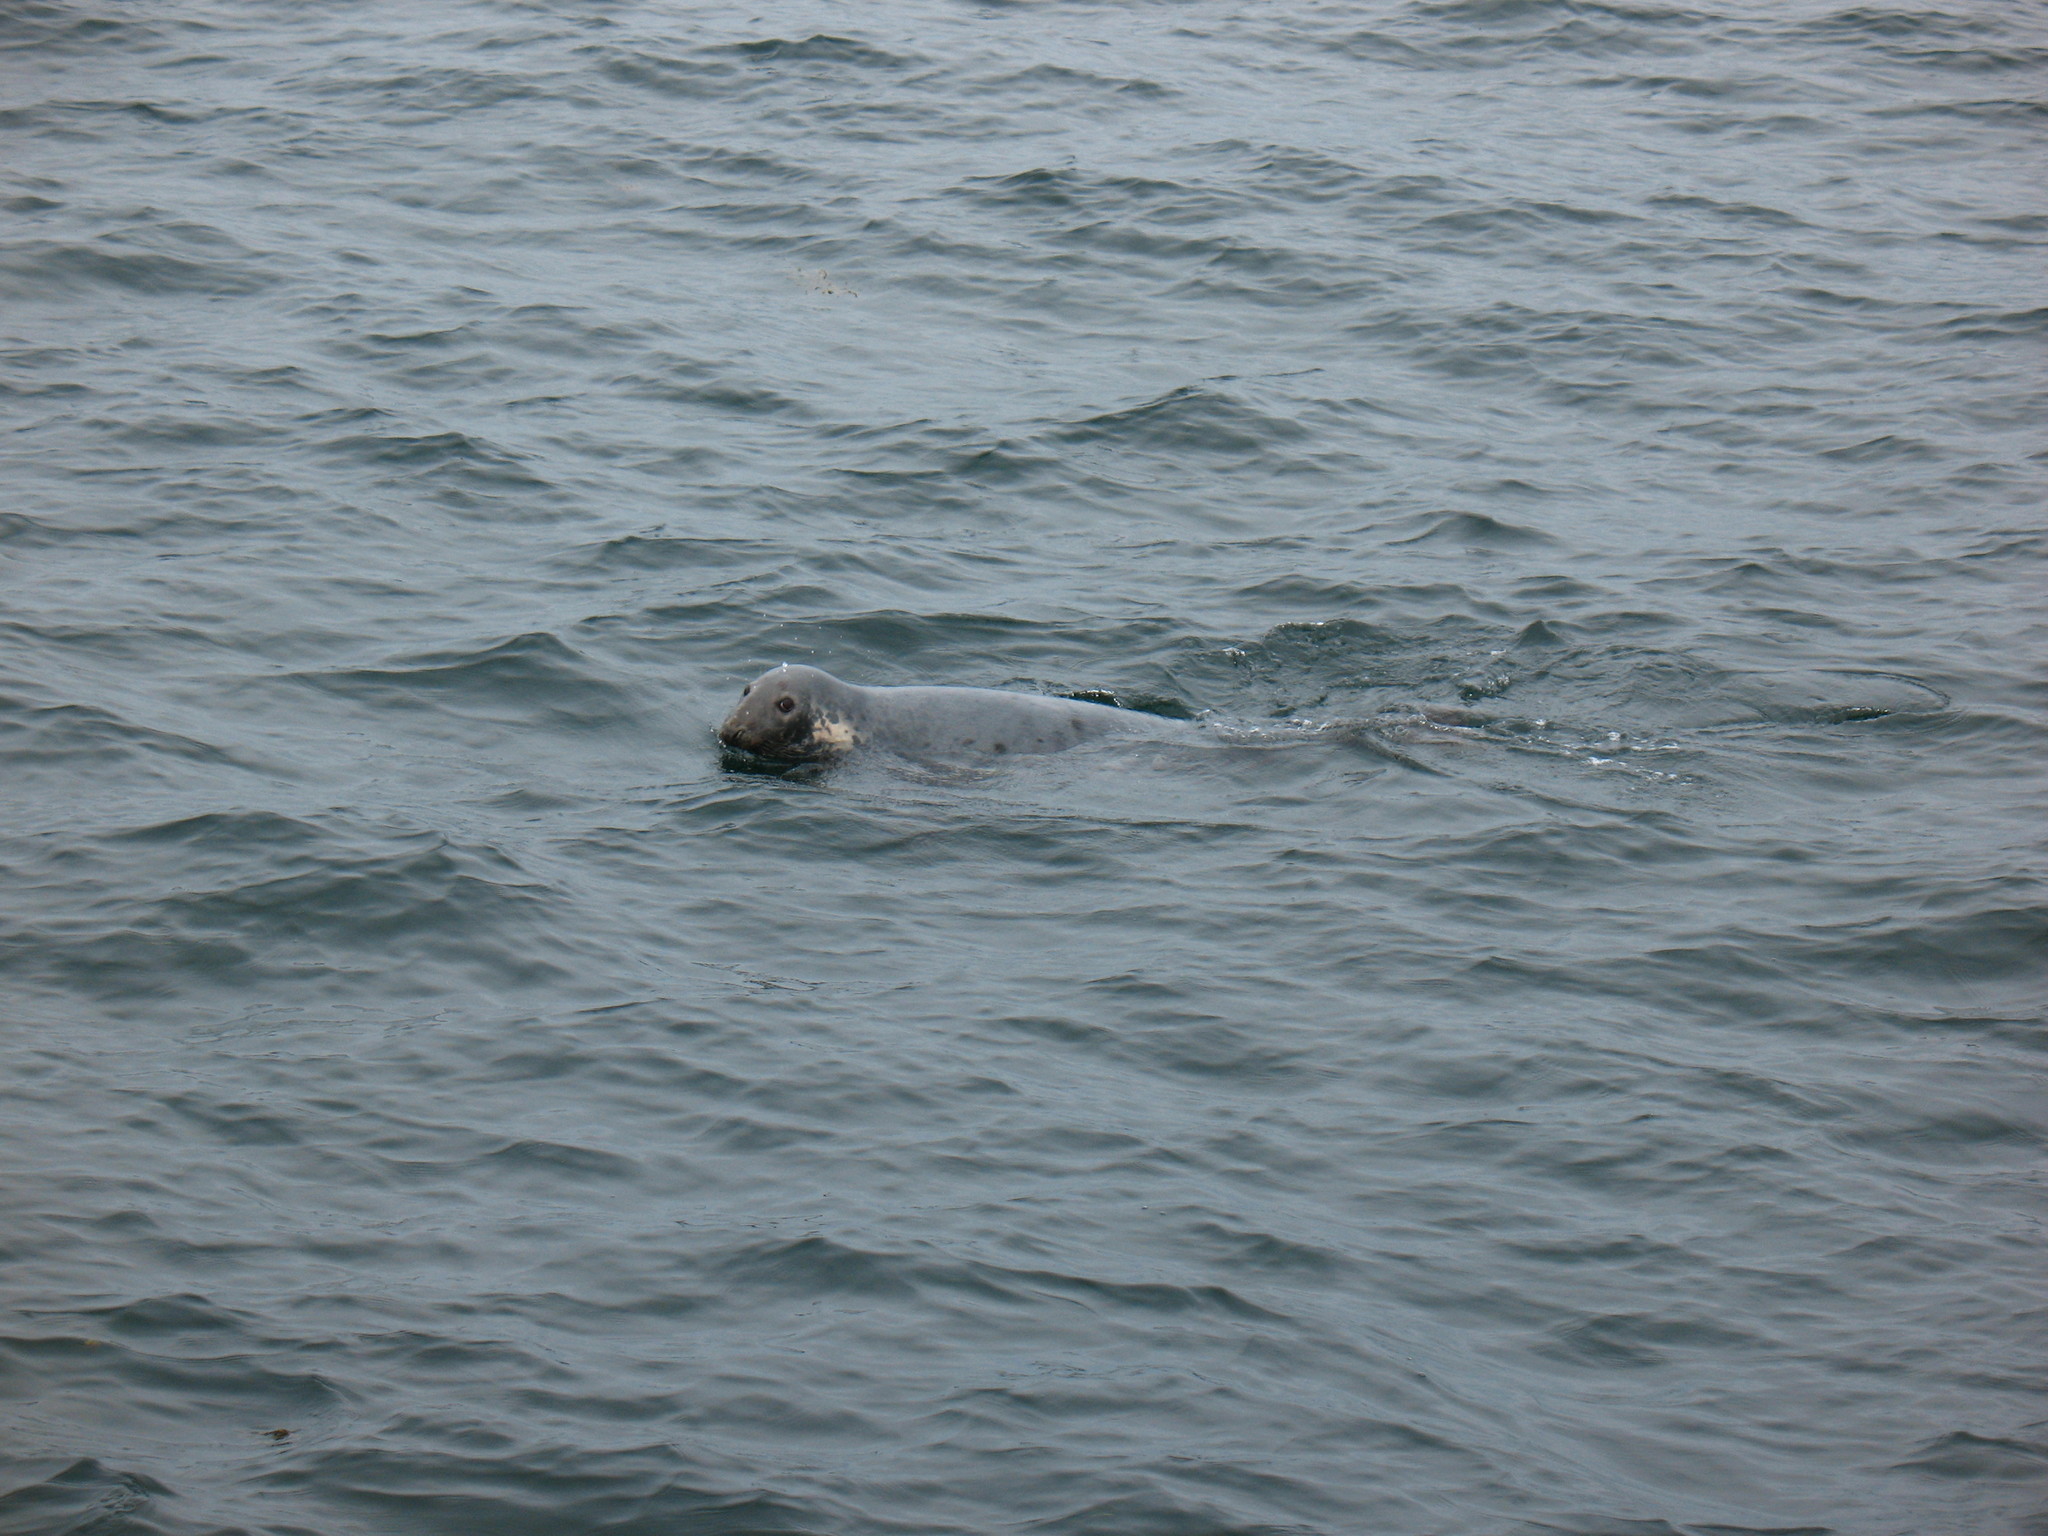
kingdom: Animalia
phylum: Chordata
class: Mammalia
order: Carnivora
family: Phocidae
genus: Halichoerus
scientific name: Halichoerus grypus
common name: Grey seal
